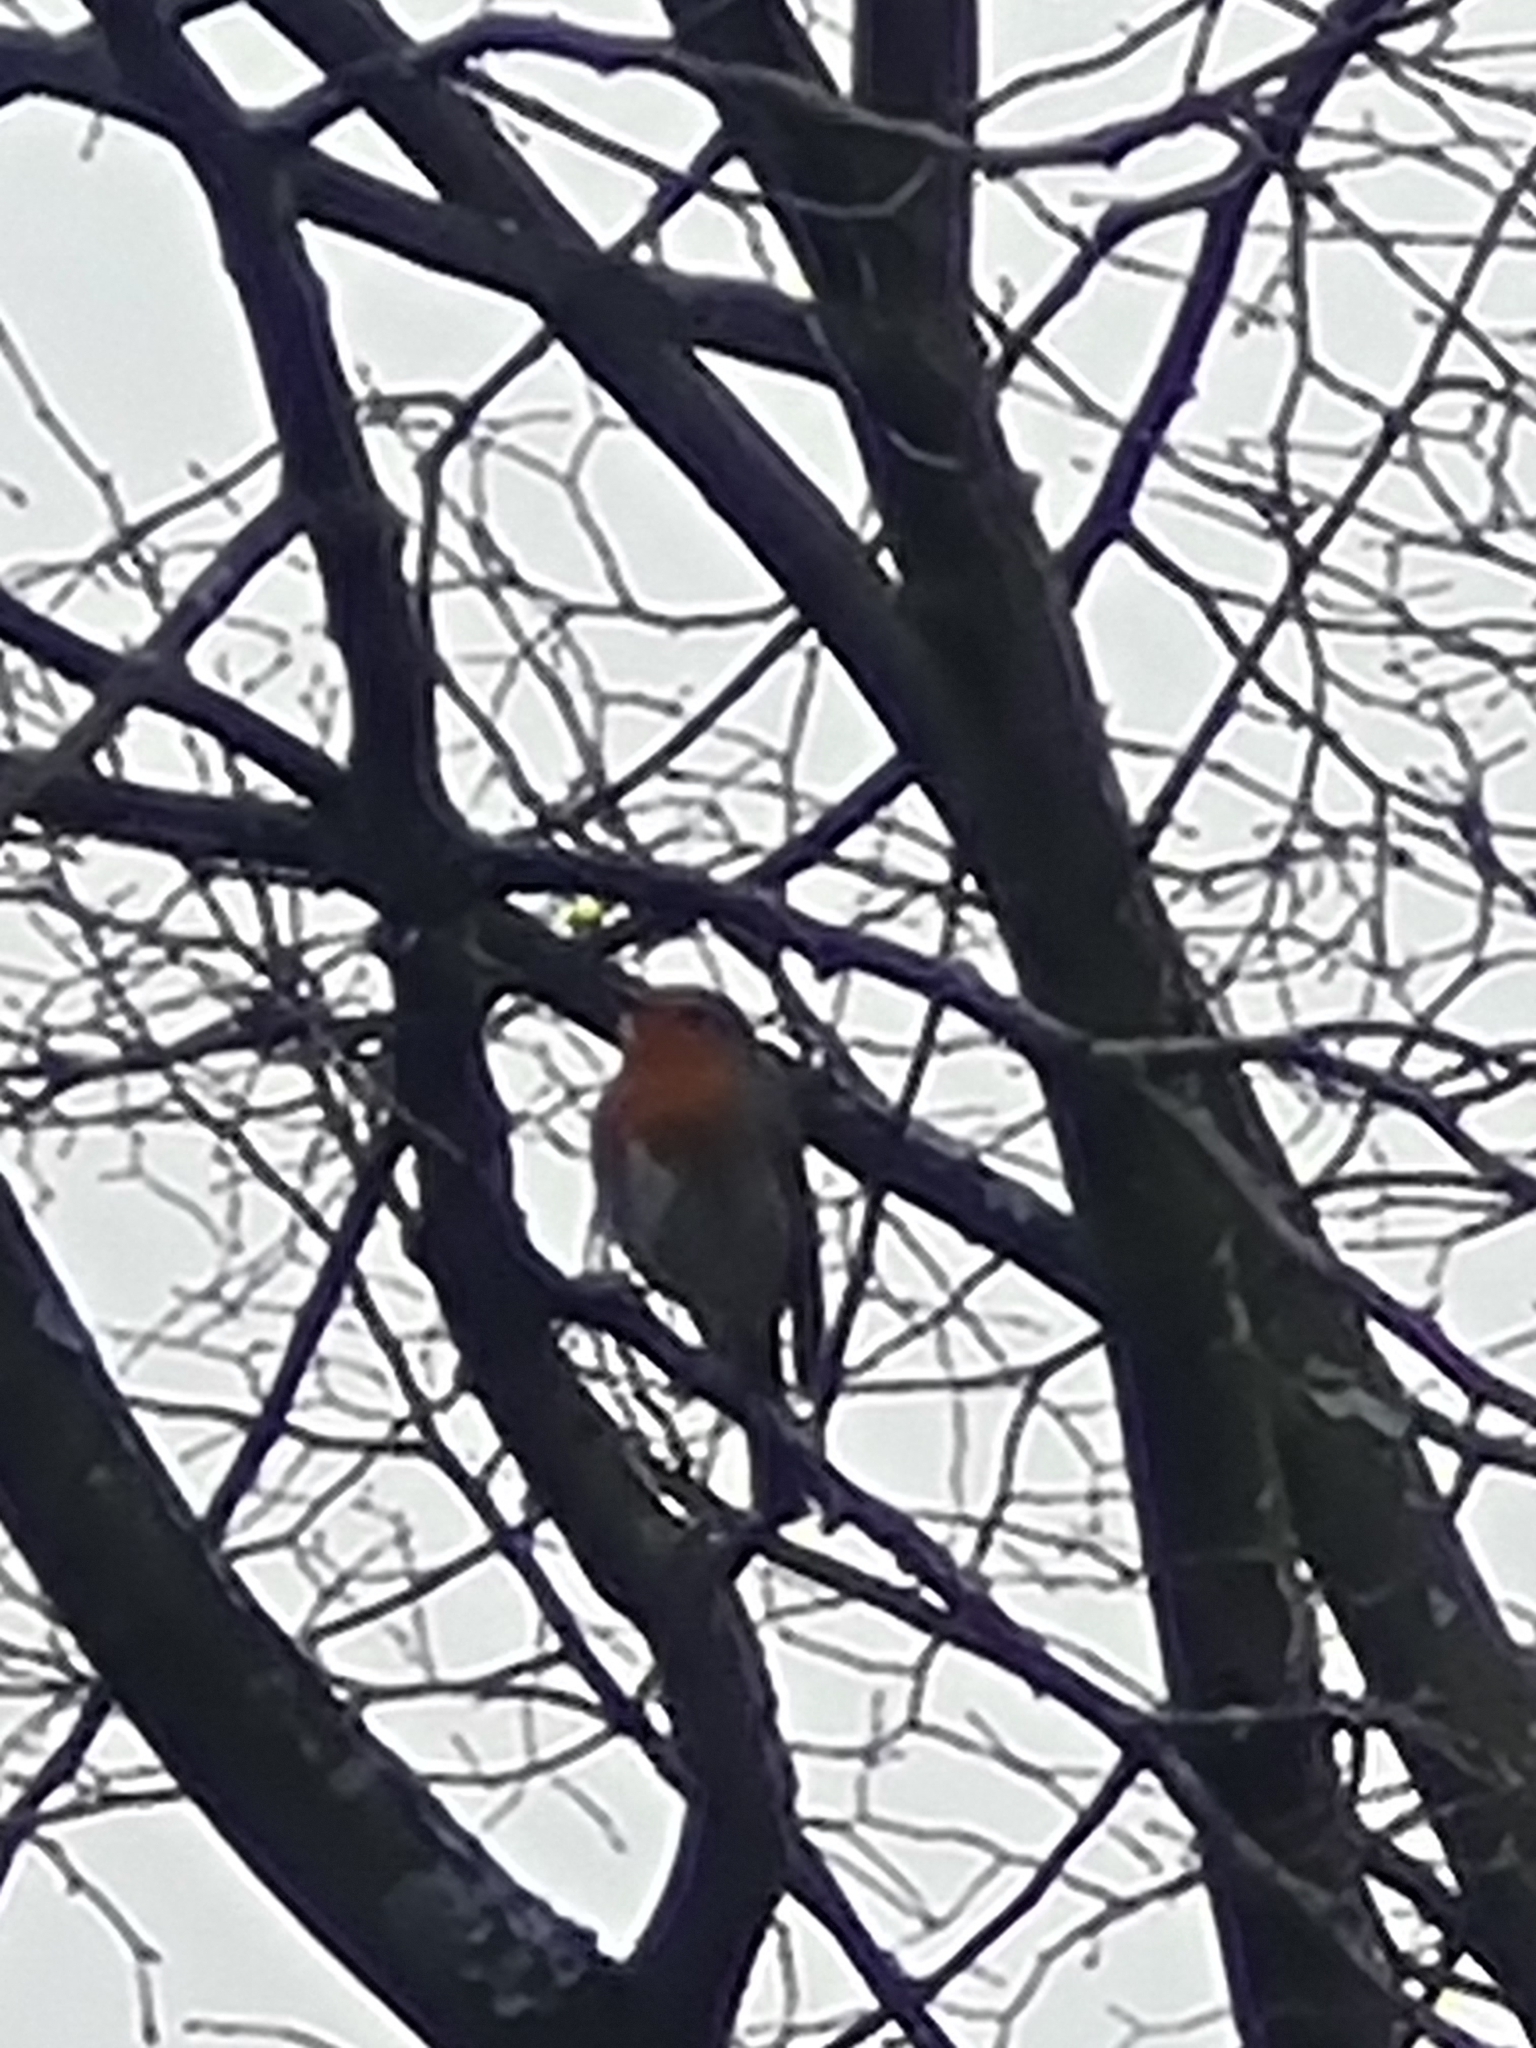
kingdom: Animalia
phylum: Chordata
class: Aves
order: Passeriformes
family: Muscicapidae
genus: Erithacus
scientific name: Erithacus rubecula
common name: European robin
